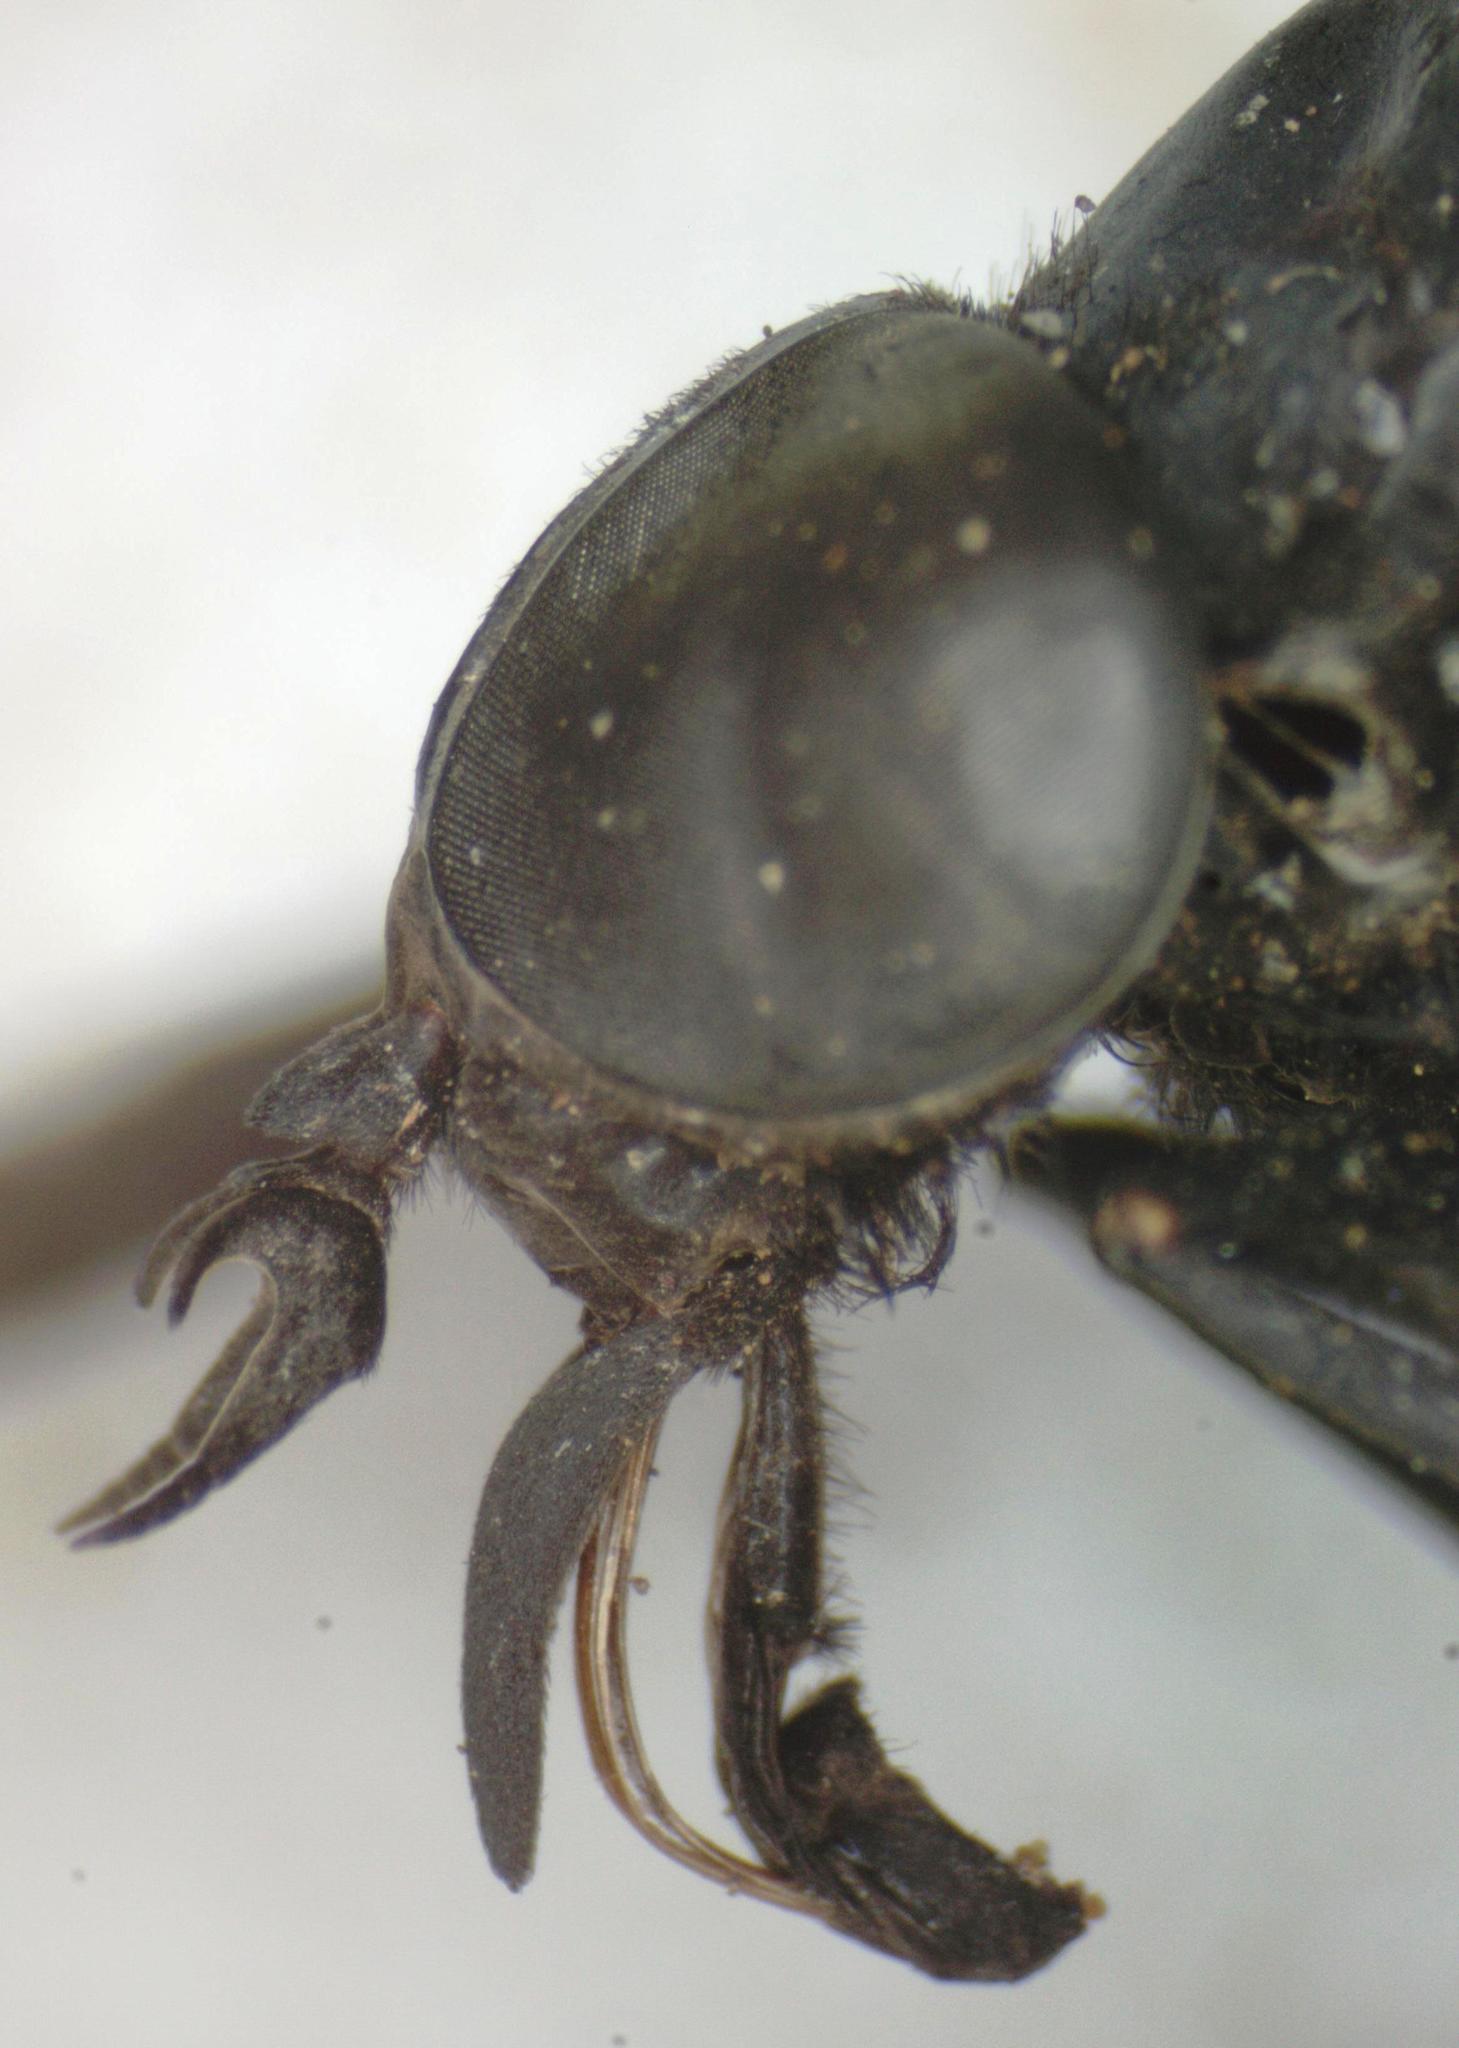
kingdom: Animalia
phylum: Arthropoda
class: Insecta
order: Diptera
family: Tabanidae
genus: Tabanus
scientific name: Tabanus erebus
